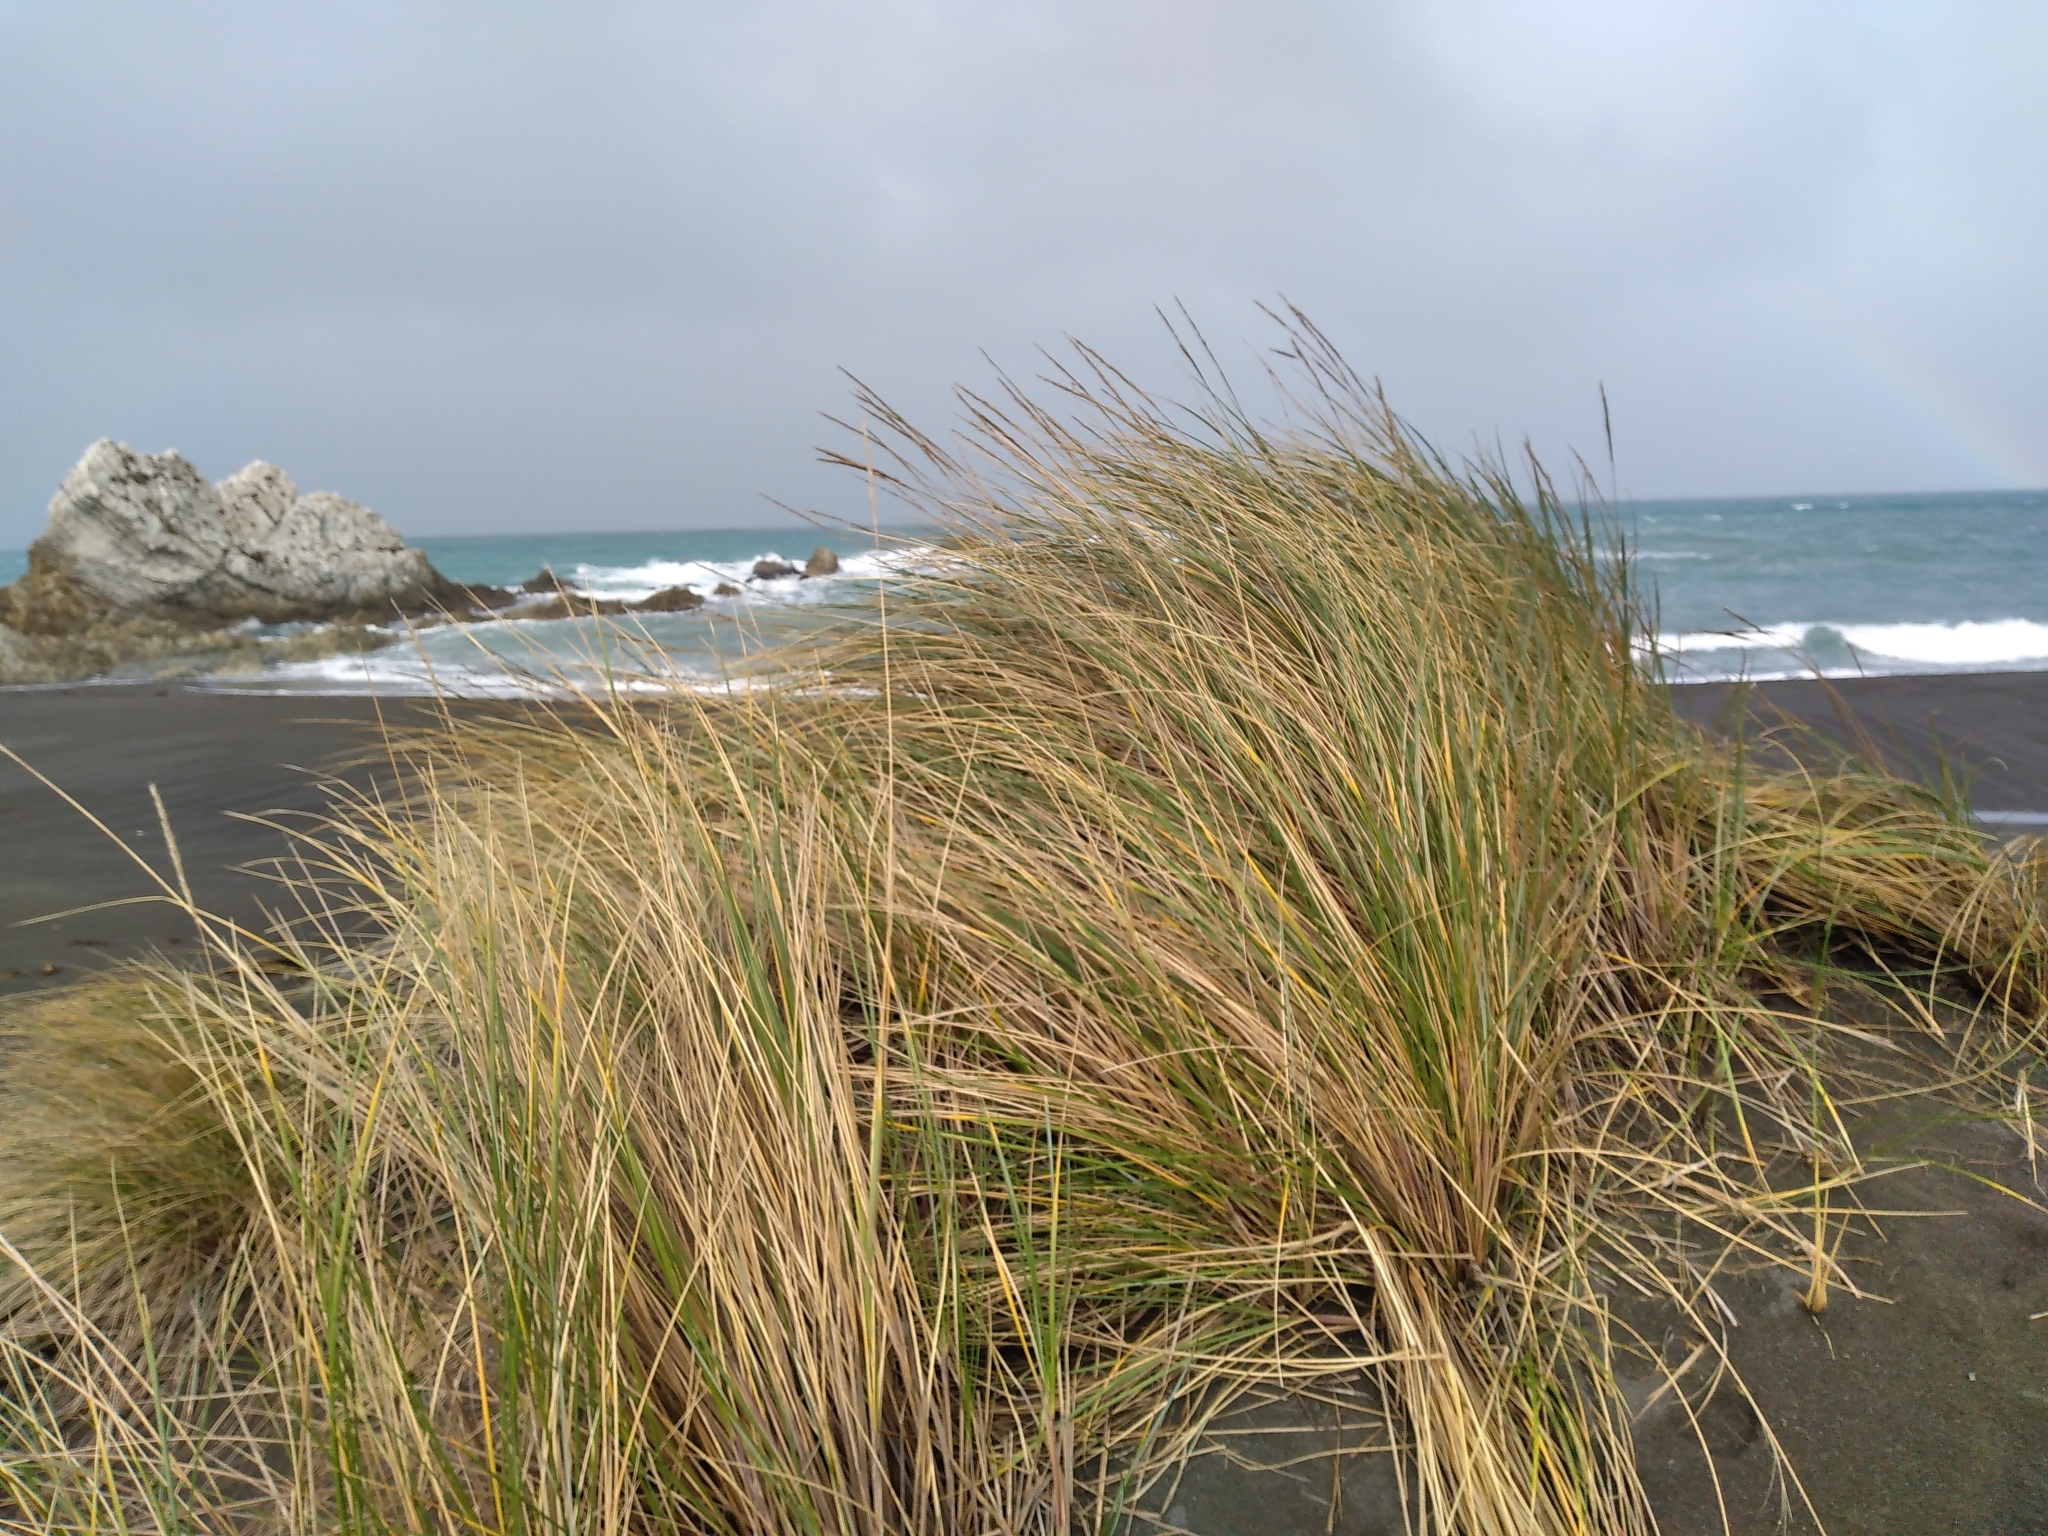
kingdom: Plantae
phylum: Tracheophyta
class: Liliopsida
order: Poales
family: Poaceae
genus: Calamagrostis
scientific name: Calamagrostis arenaria
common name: European beachgrass
